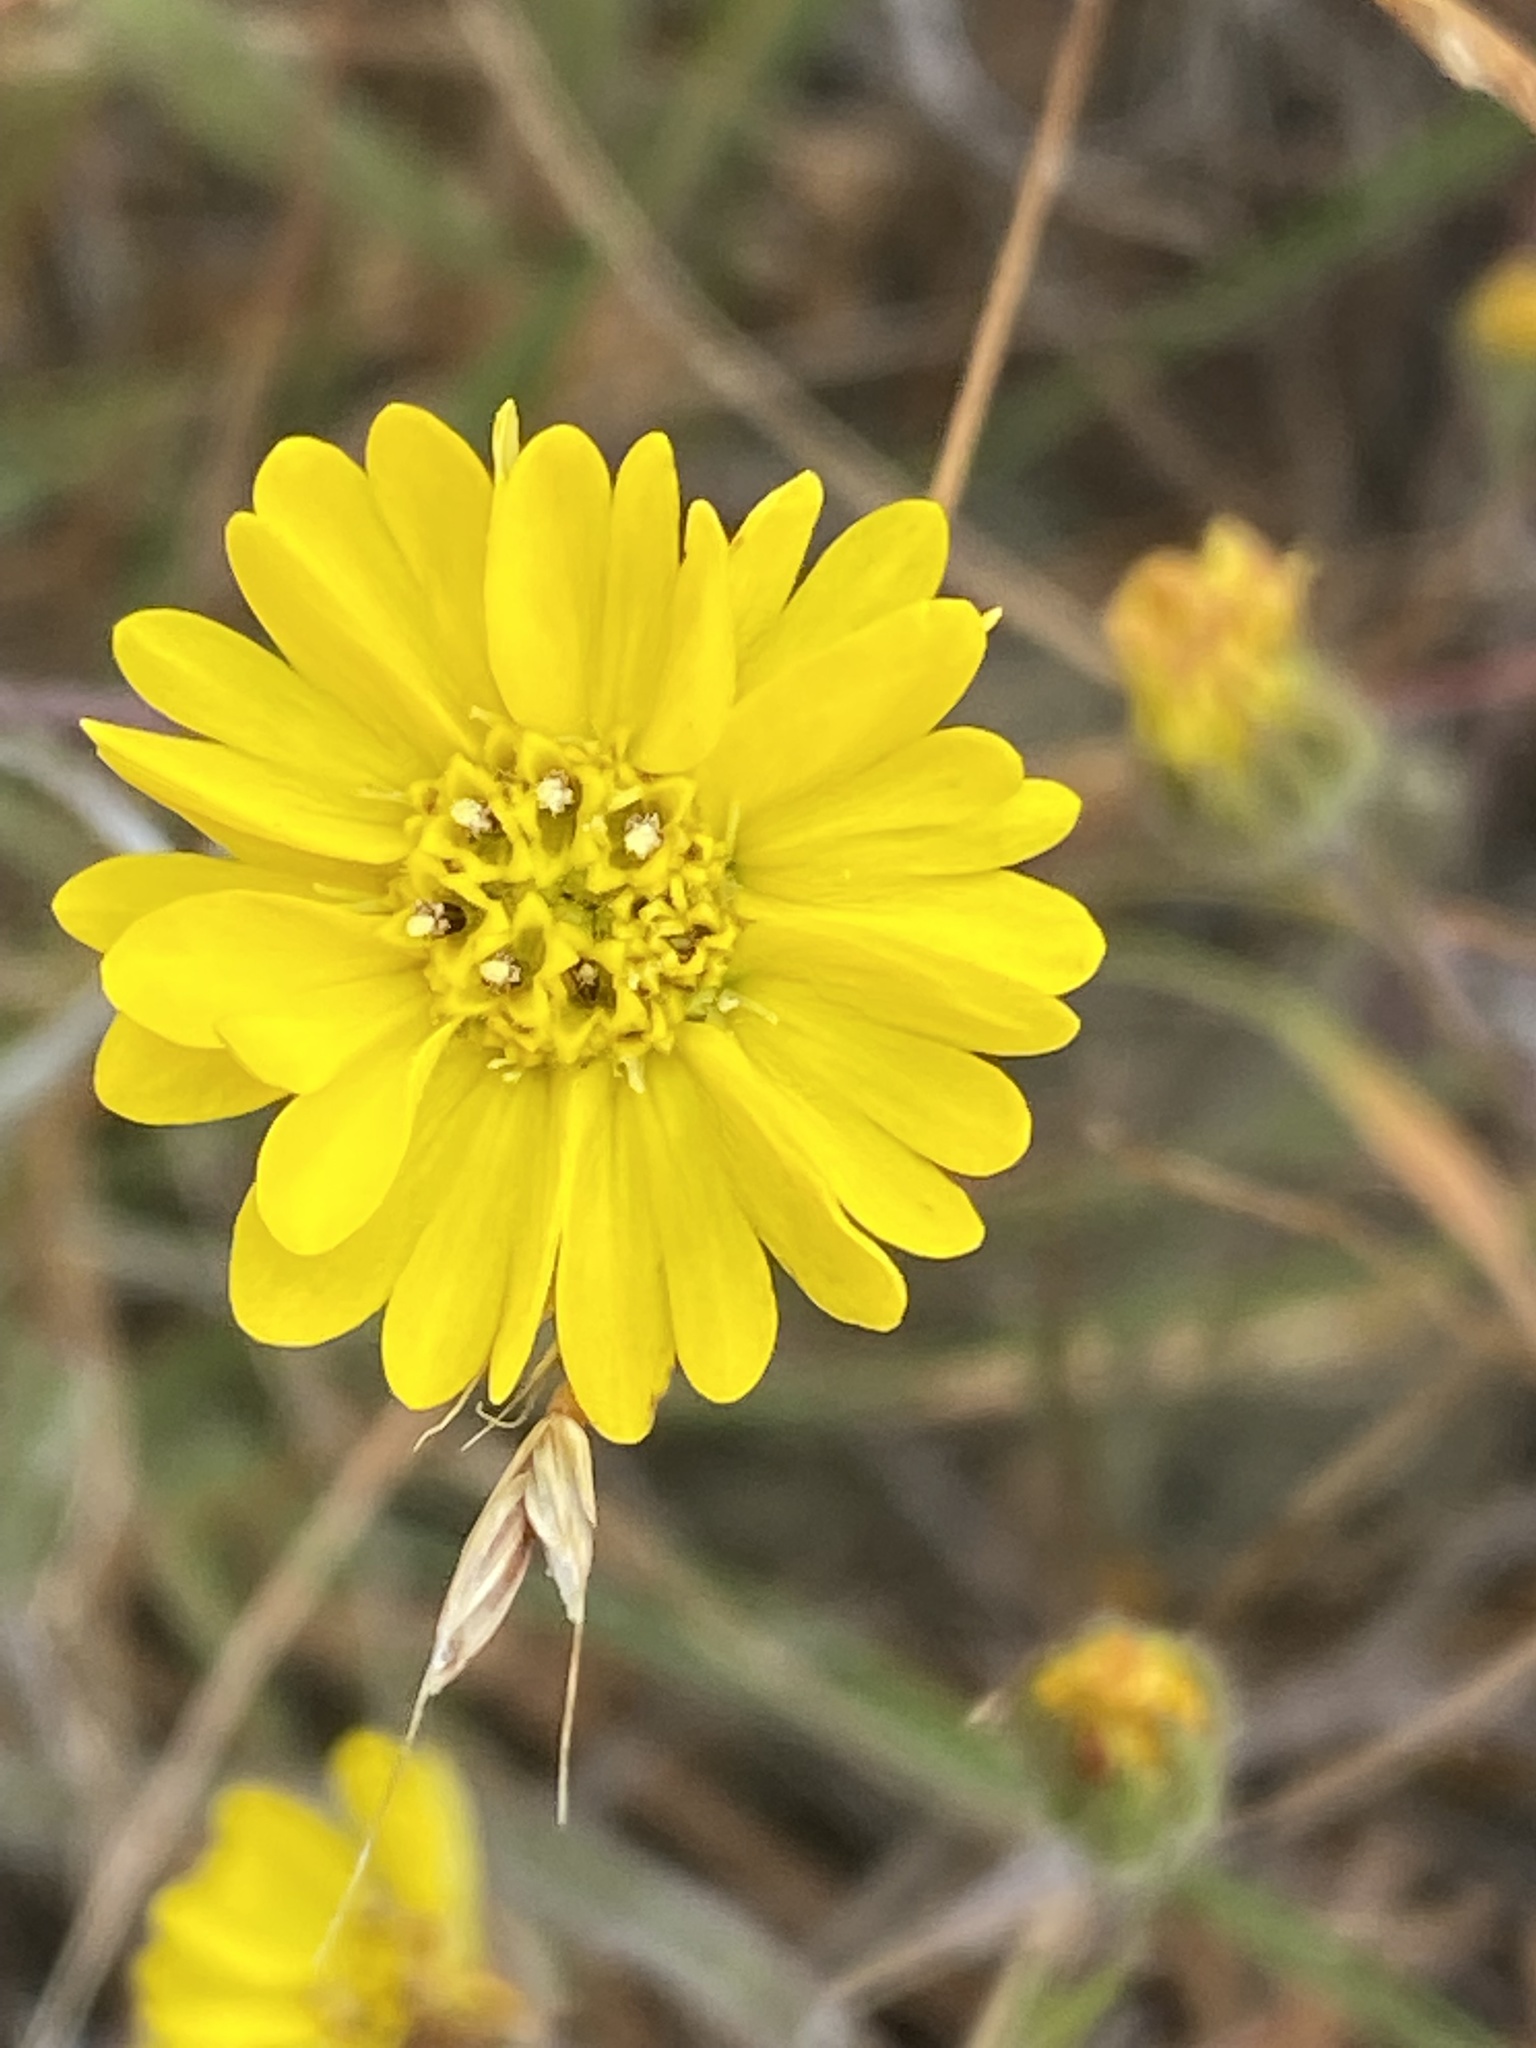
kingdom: Plantae
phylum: Tracheophyta
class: Magnoliopsida
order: Asterales
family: Asteraceae
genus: Hemizonia
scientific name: Hemizonia congesta
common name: Hayfield tarweed
